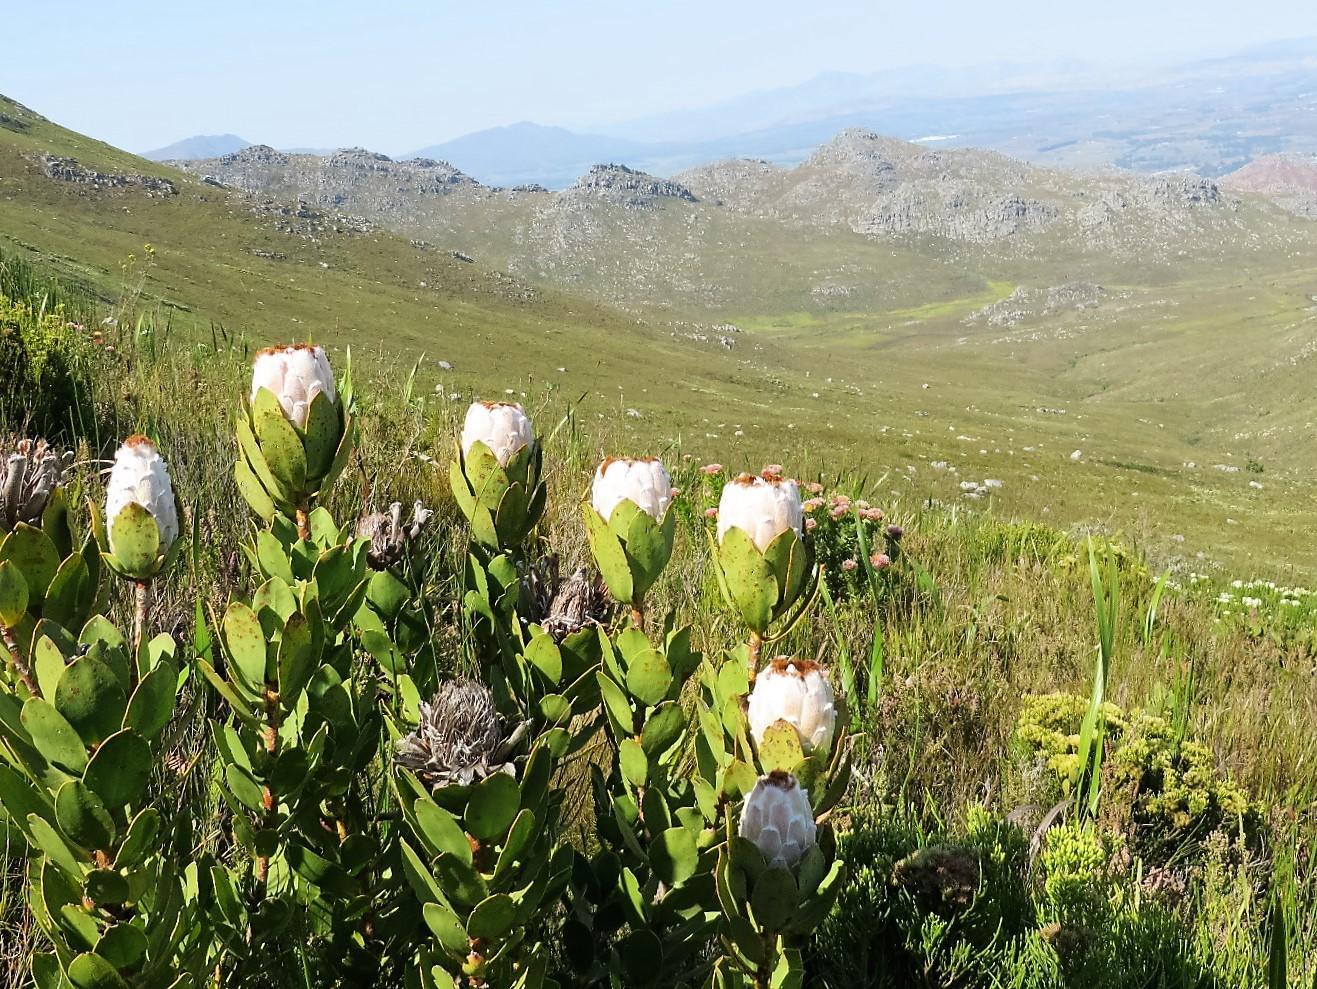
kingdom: Plantae
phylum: Tracheophyta
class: Magnoliopsida
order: Proteales
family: Proteaceae
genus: Protea
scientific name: Protea speciosa
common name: Brown-beard sugarbush
